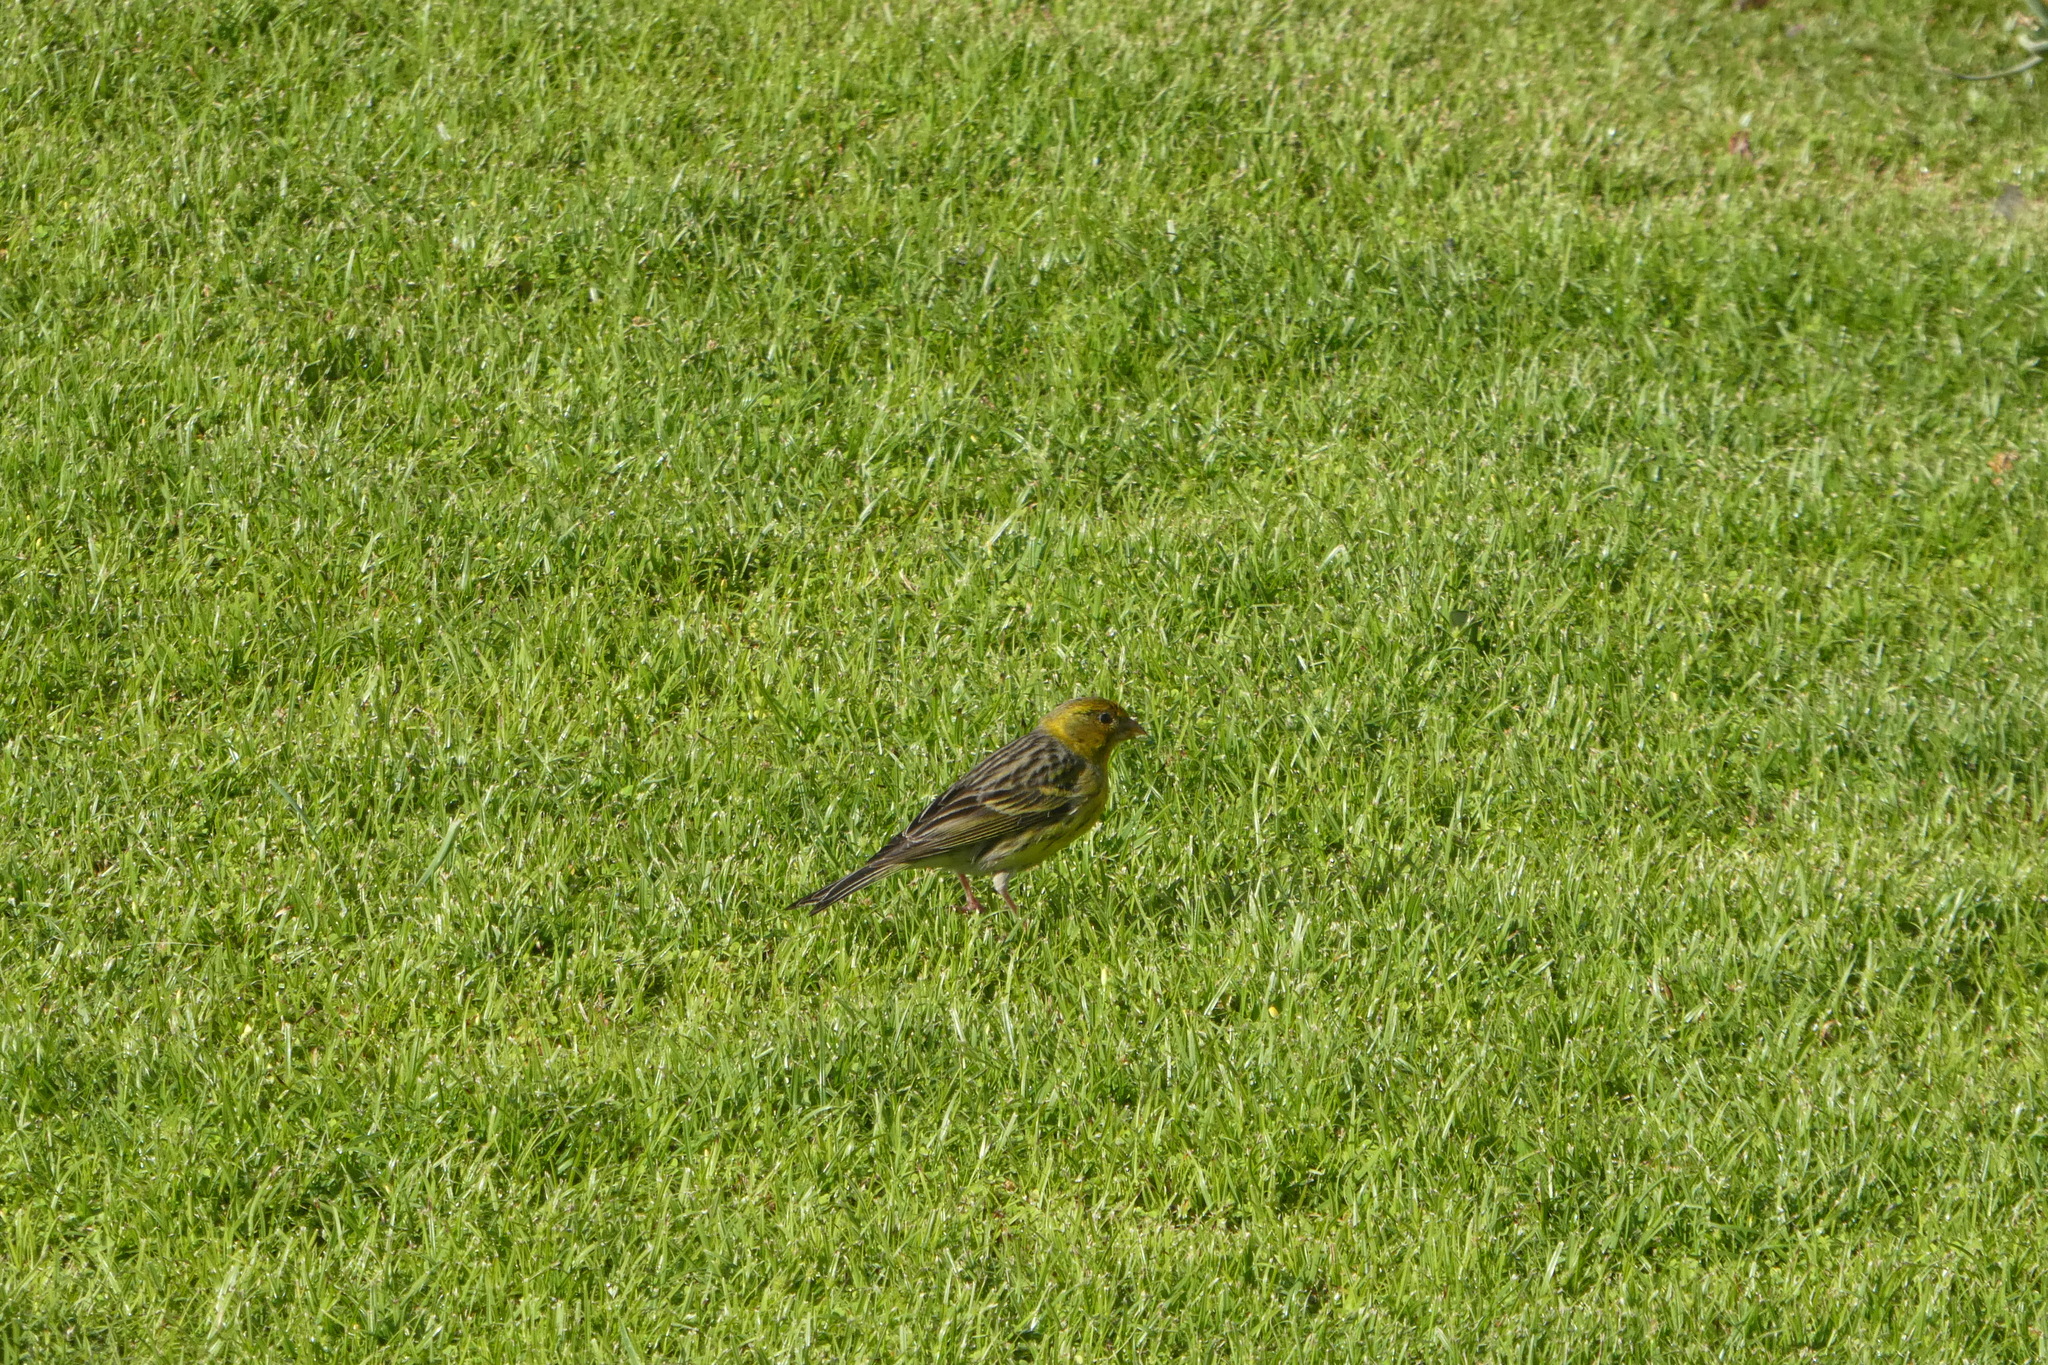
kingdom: Animalia
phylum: Chordata
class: Aves
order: Passeriformes
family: Fringillidae
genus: Serinus
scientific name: Serinus canaria
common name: Atlantic canary
